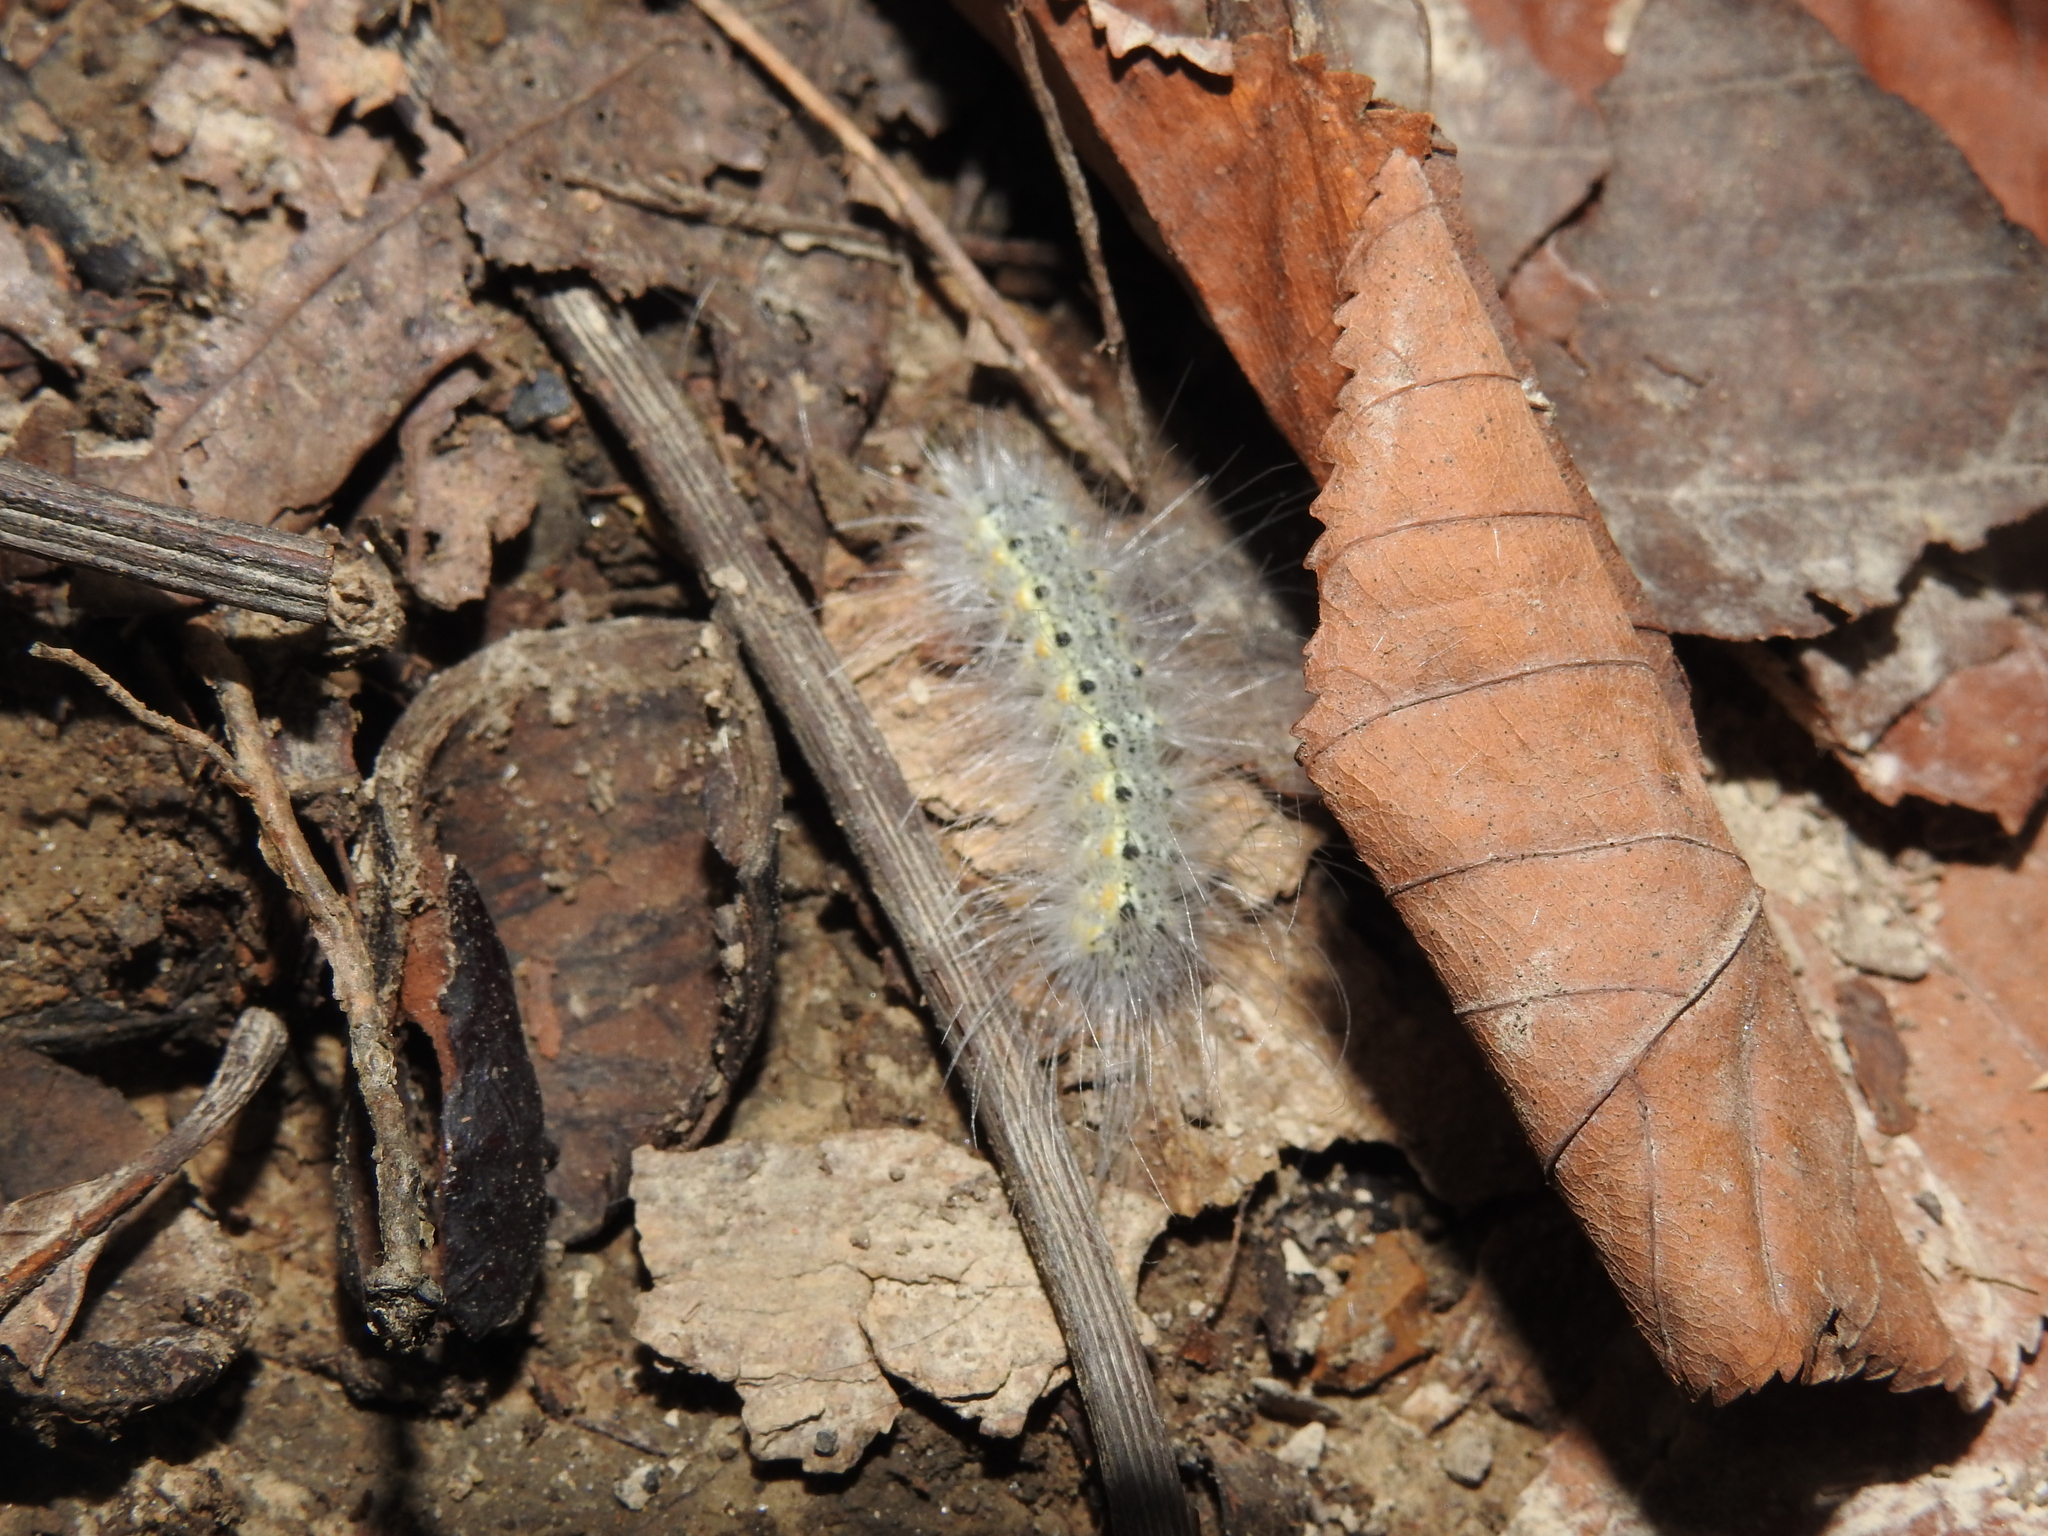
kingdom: Animalia
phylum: Arthropoda
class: Insecta
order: Lepidoptera
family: Erebidae
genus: Hyphantria
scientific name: Hyphantria cunea
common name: American white moth
